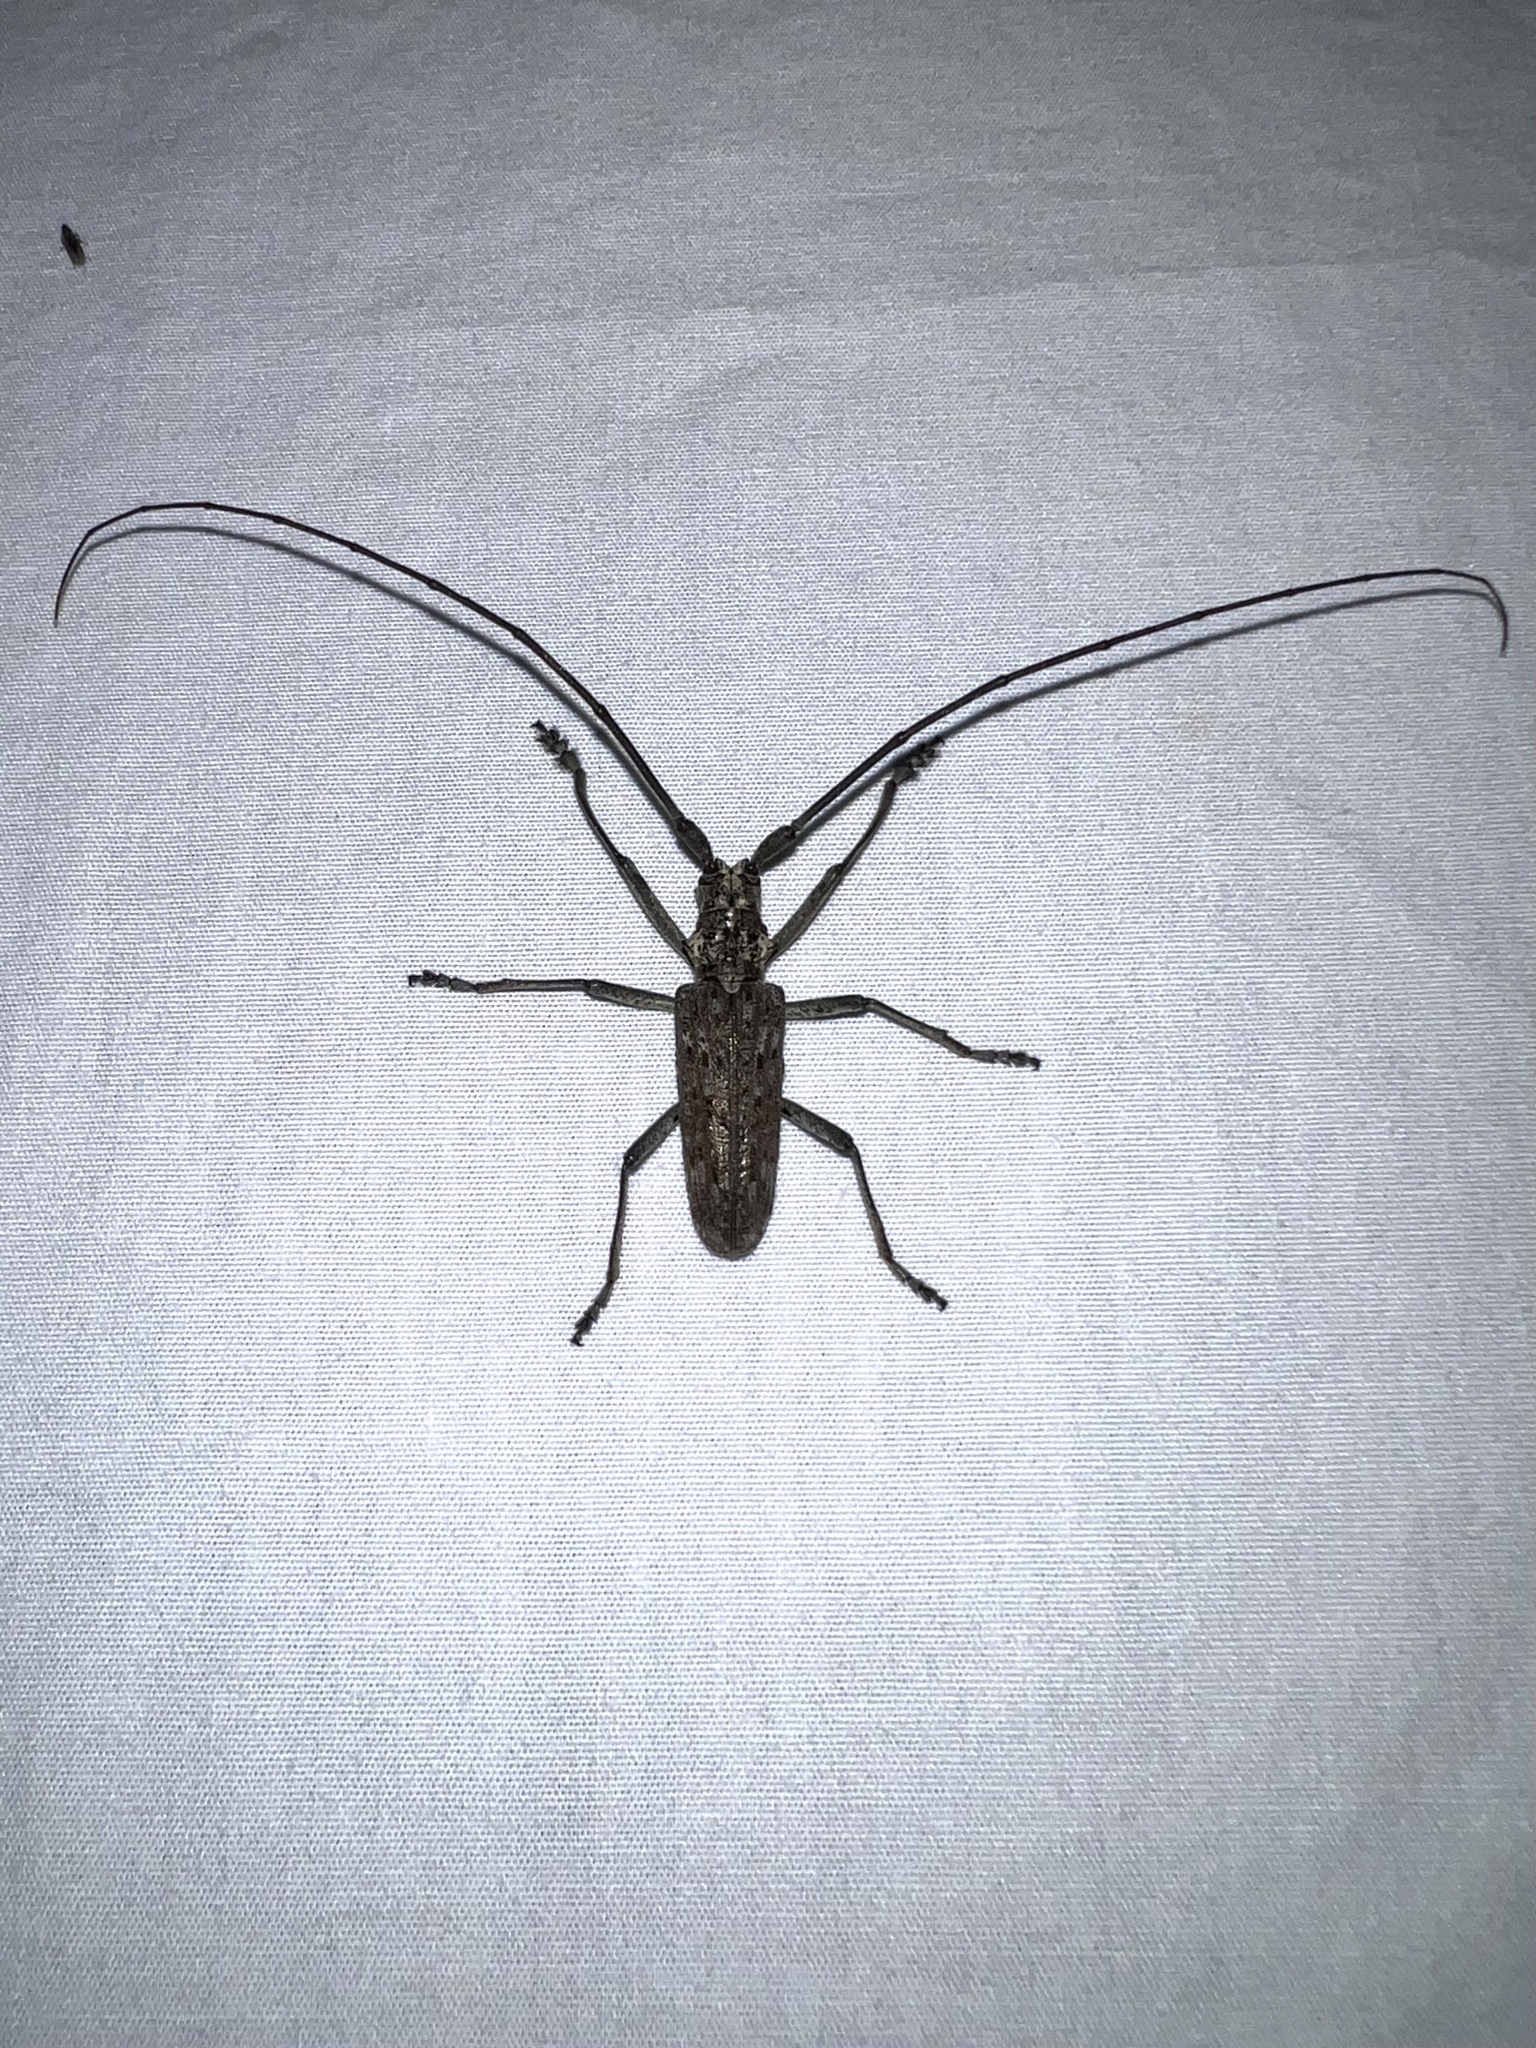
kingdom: Animalia
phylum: Arthropoda
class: Insecta
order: Coleoptera
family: Cerambycidae
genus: Monochamus
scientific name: Monochamus notatus
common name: Northeastern pine sawyer beetle
